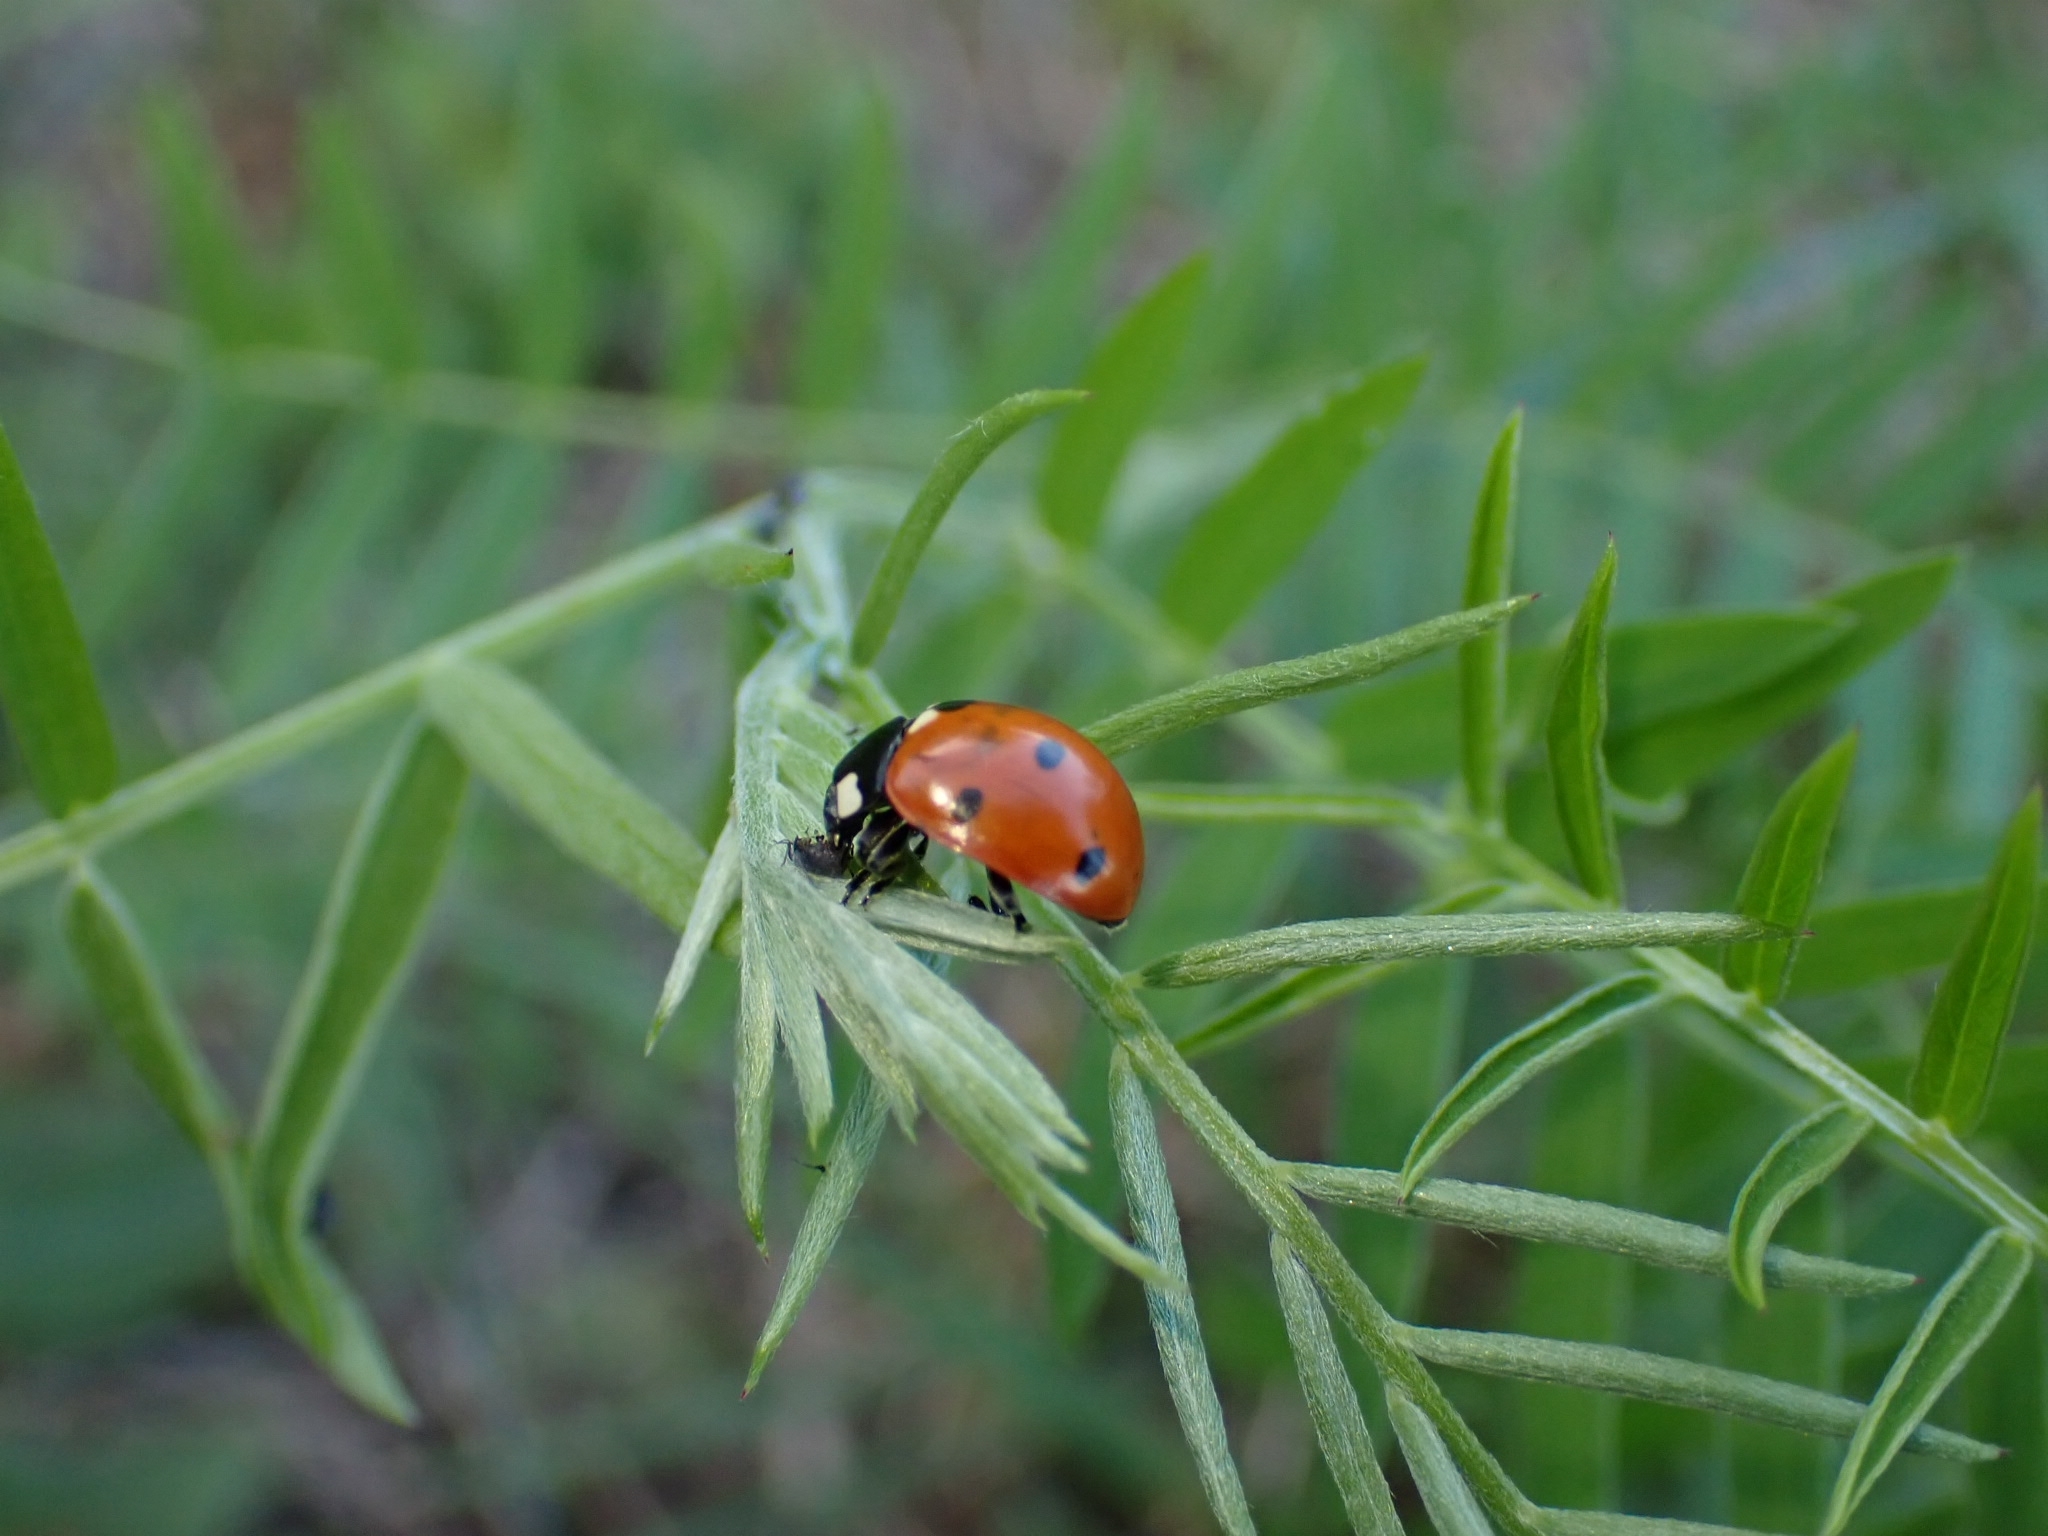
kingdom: Animalia
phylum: Arthropoda
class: Insecta
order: Coleoptera
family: Coccinellidae
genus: Coccinella
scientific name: Coccinella septempunctata
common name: Sevenspotted lady beetle
